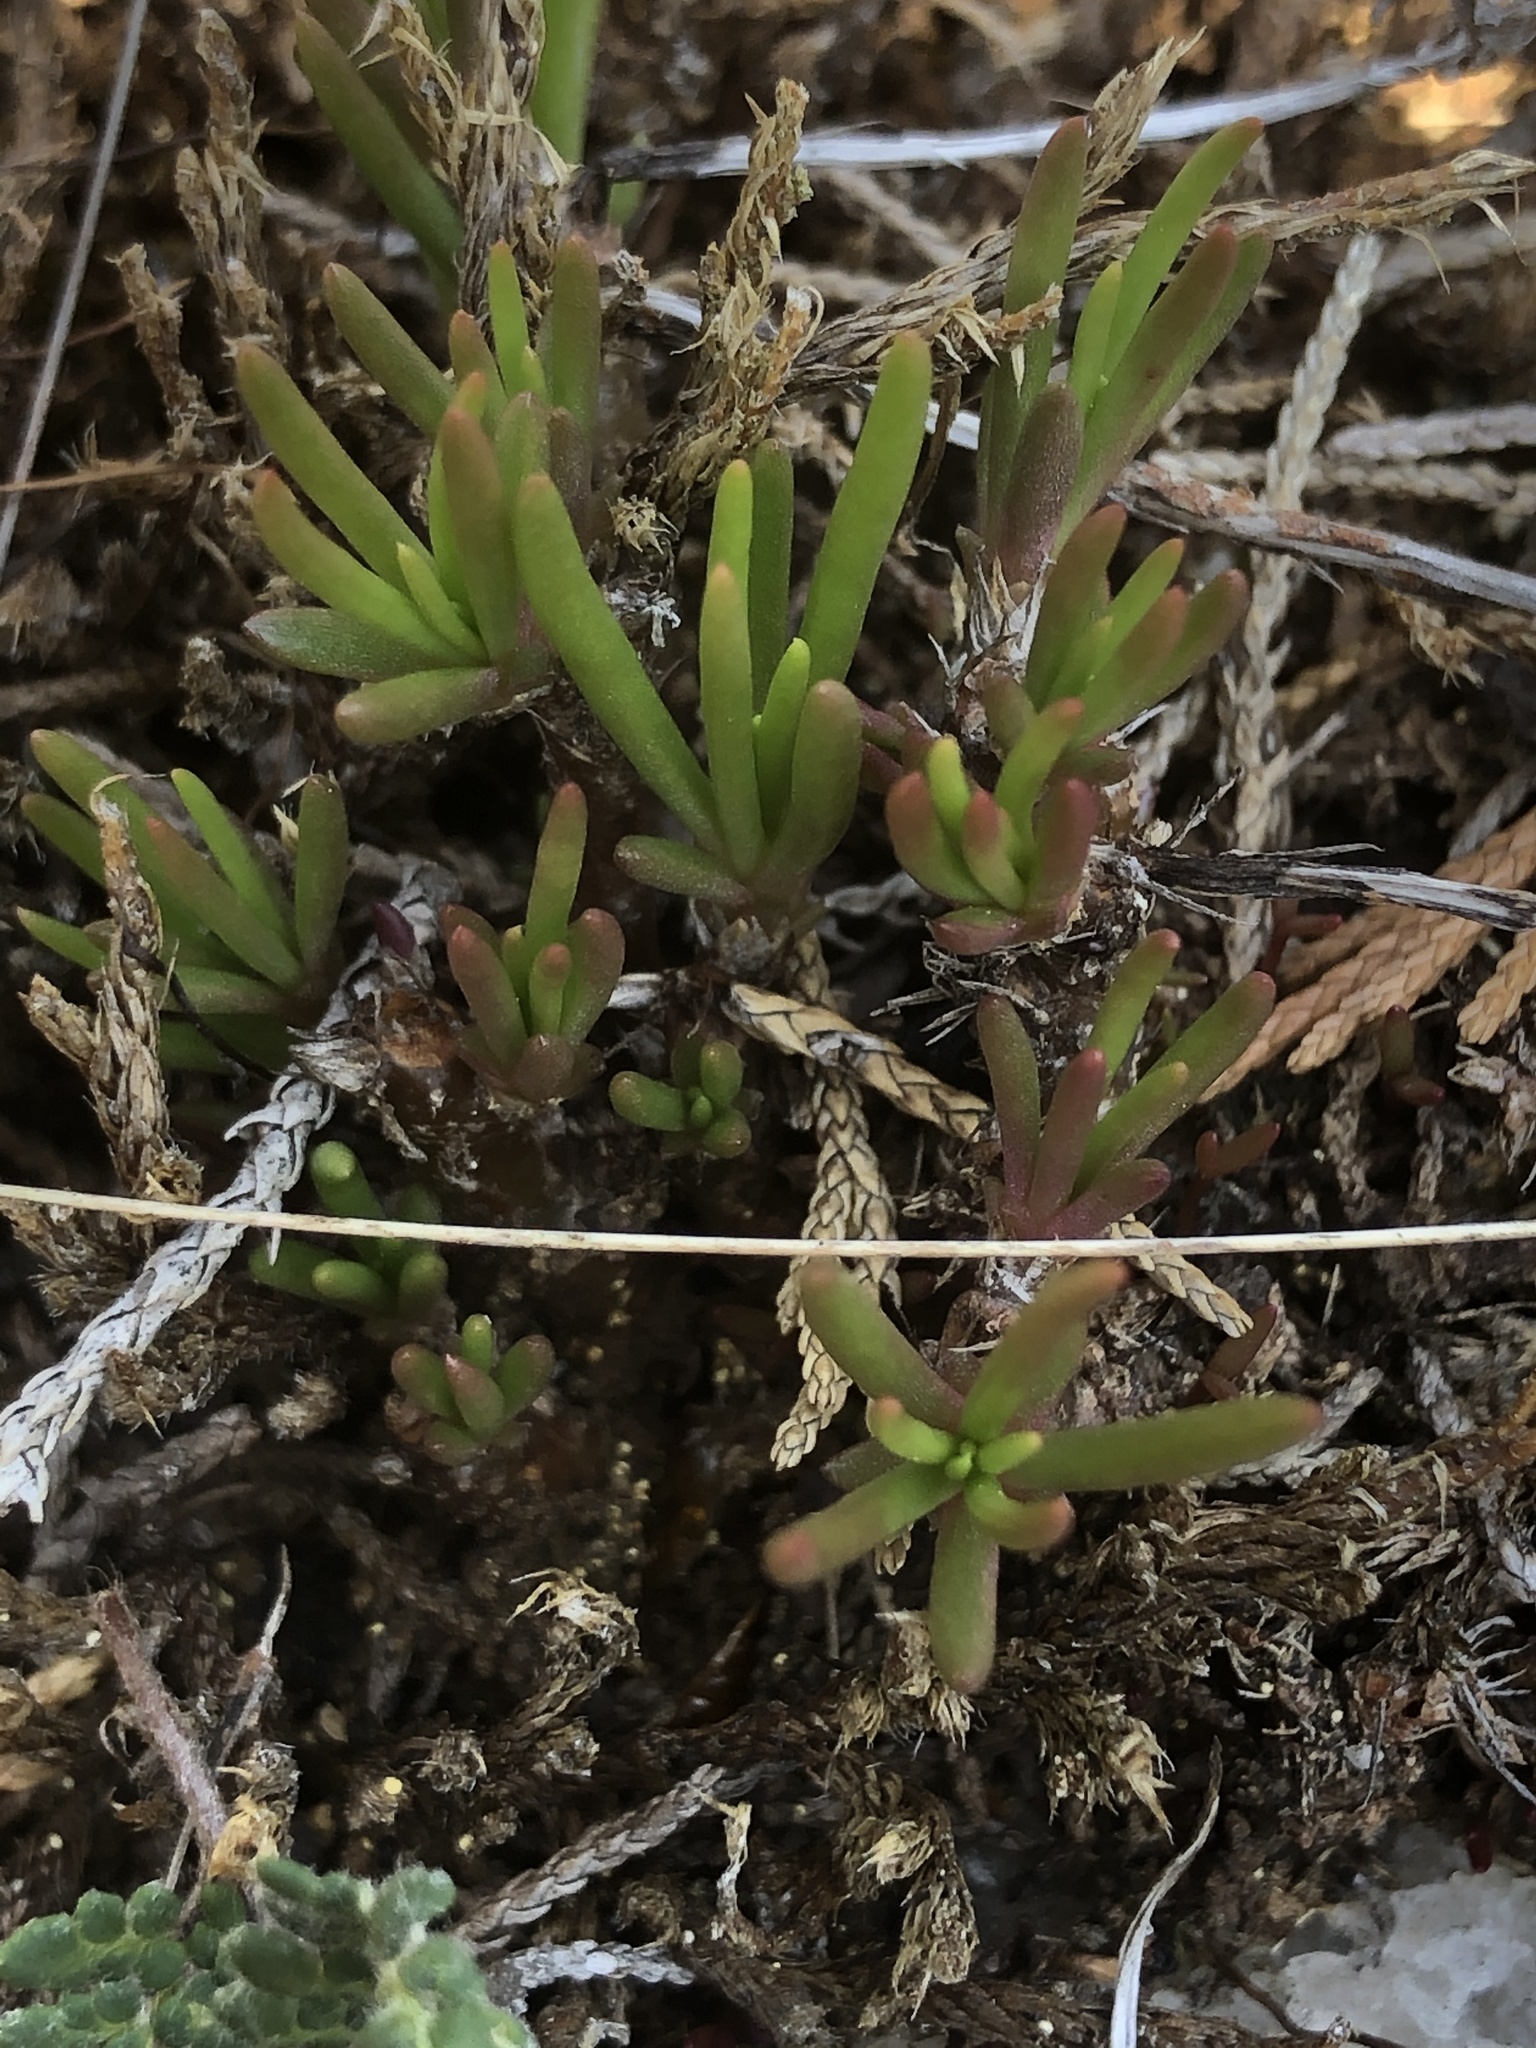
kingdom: Plantae
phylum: Tracheophyta
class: Magnoliopsida
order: Caryophyllales
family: Montiaceae
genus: Phemeranthus
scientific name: Phemeranthus teretifolius
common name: Quill fameflower
